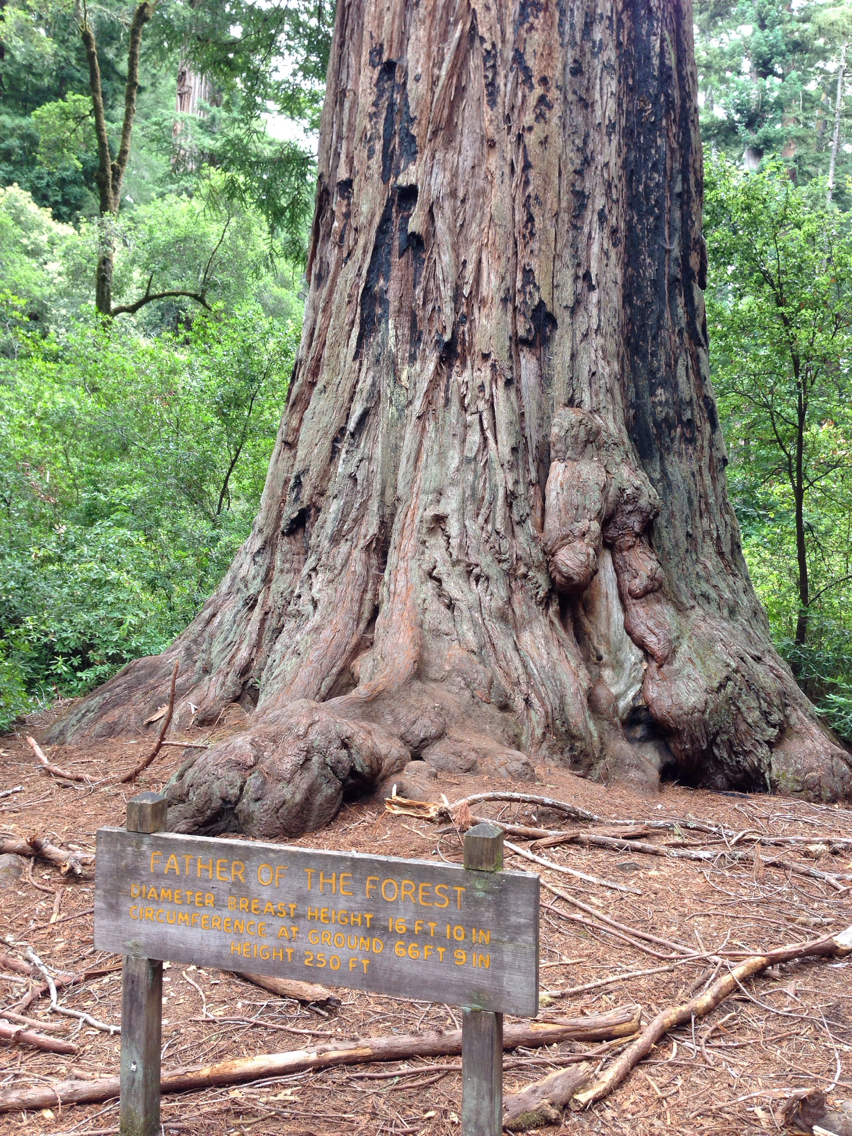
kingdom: Plantae
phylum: Tracheophyta
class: Pinopsida
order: Pinales
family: Cupressaceae
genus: Sequoia
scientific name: Sequoia sempervirens
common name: Coast redwood
